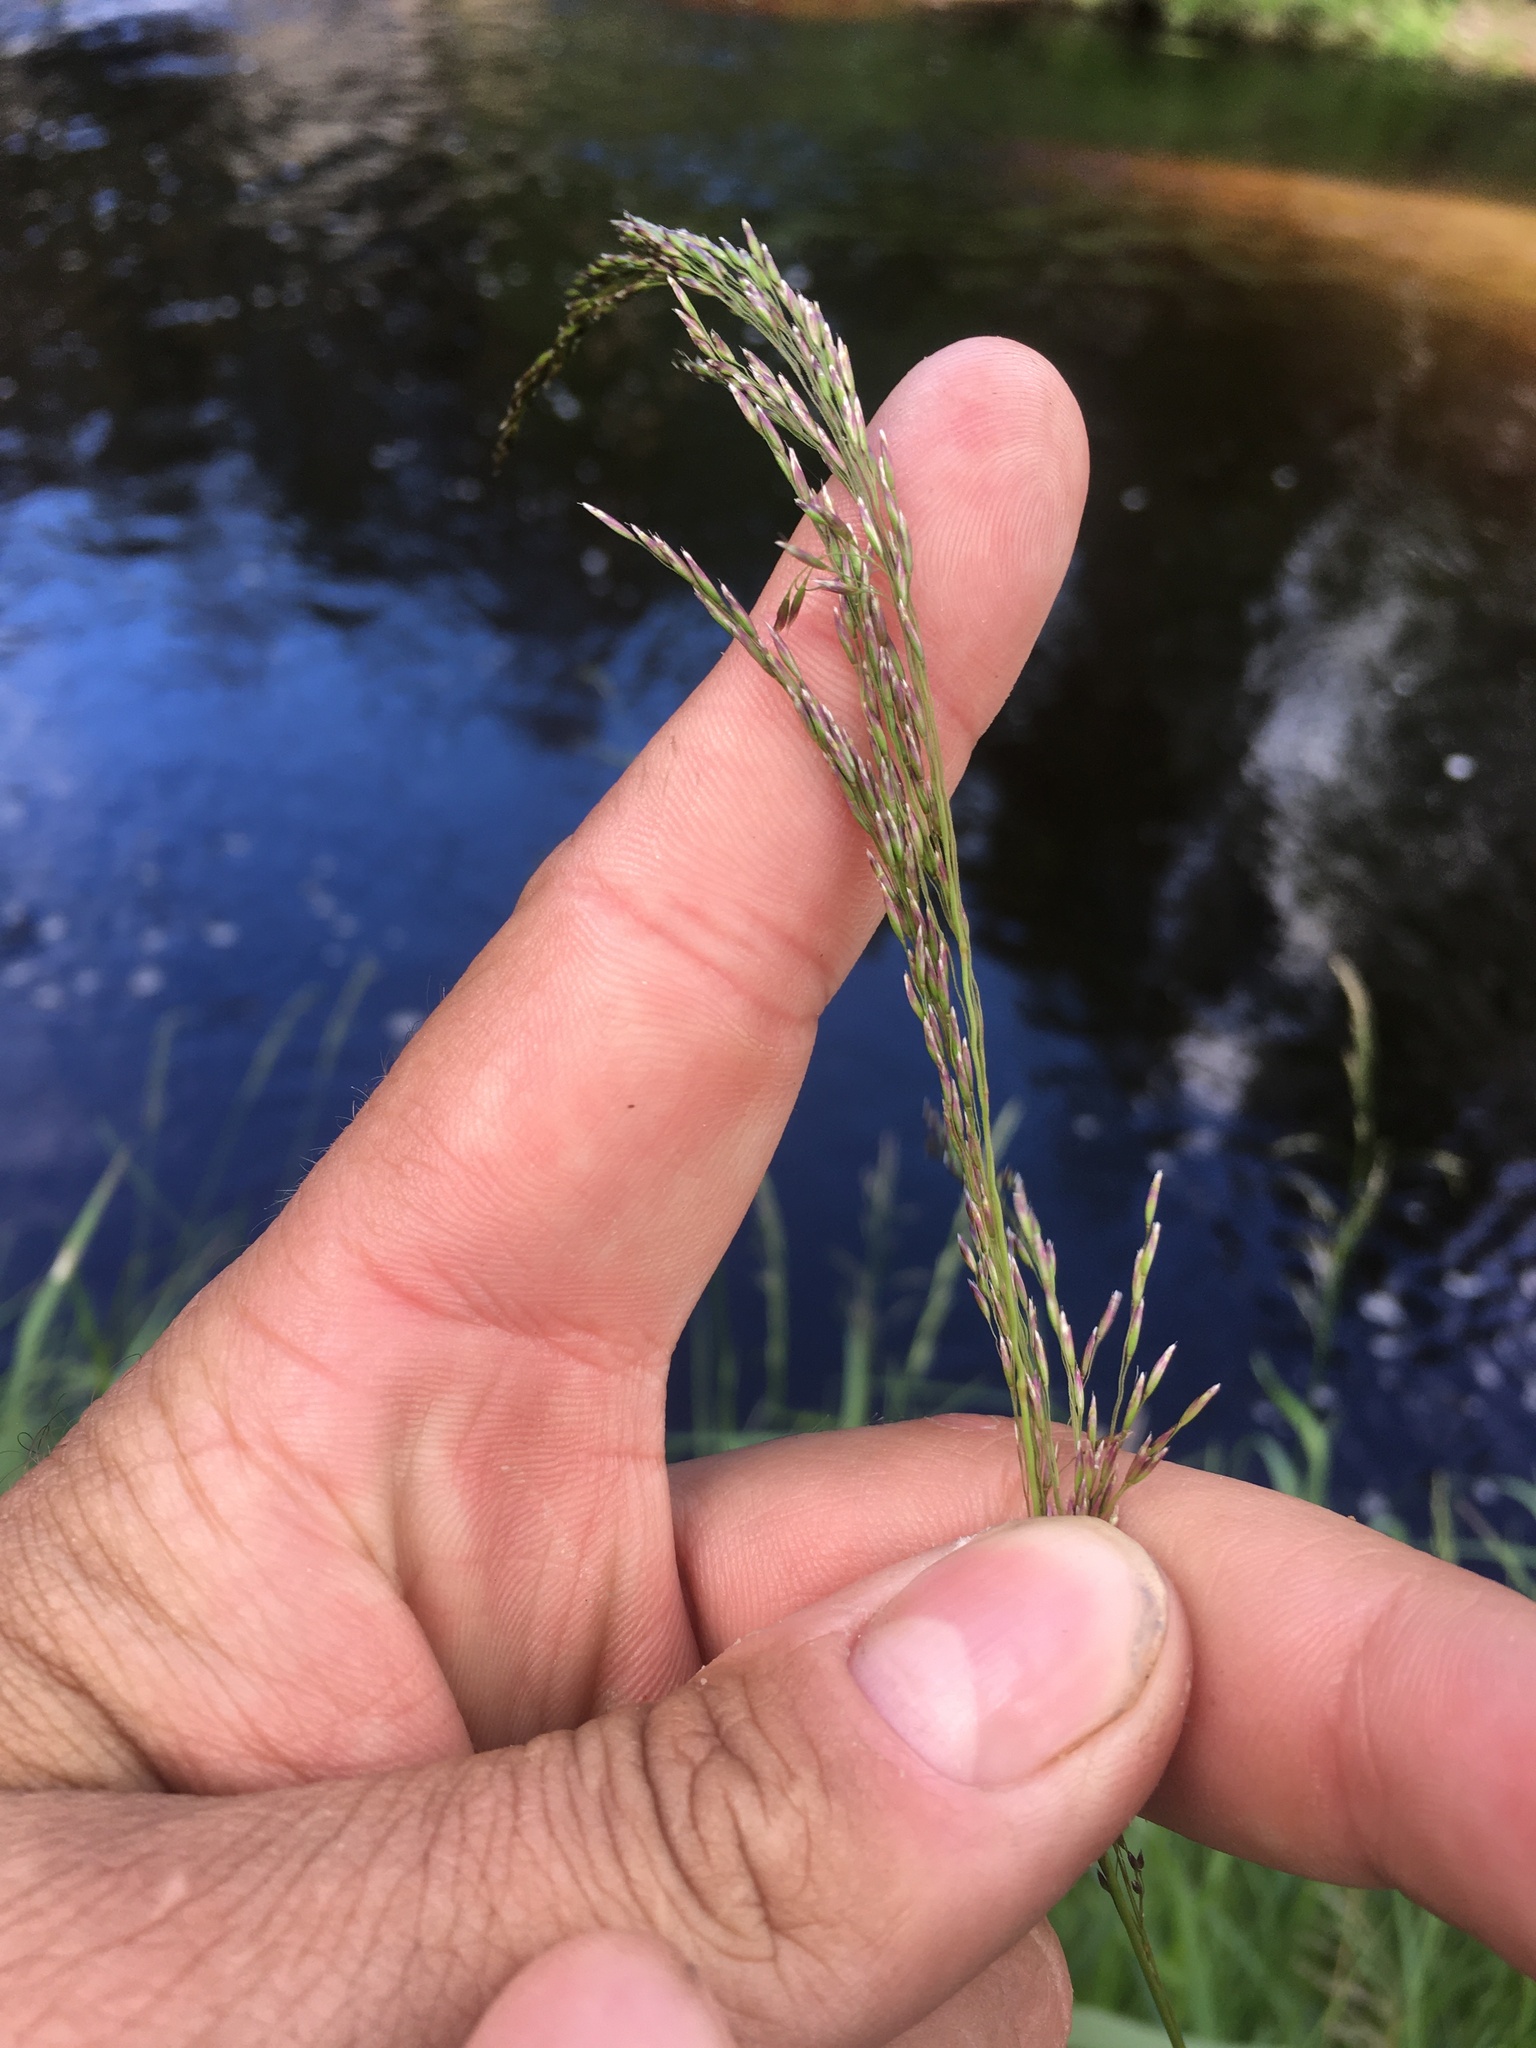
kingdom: Plantae
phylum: Tracheophyta
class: Liliopsida
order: Poales
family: Poaceae
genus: Deschampsia
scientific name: Deschampsia cespitosa
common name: Tufted hair-grass
